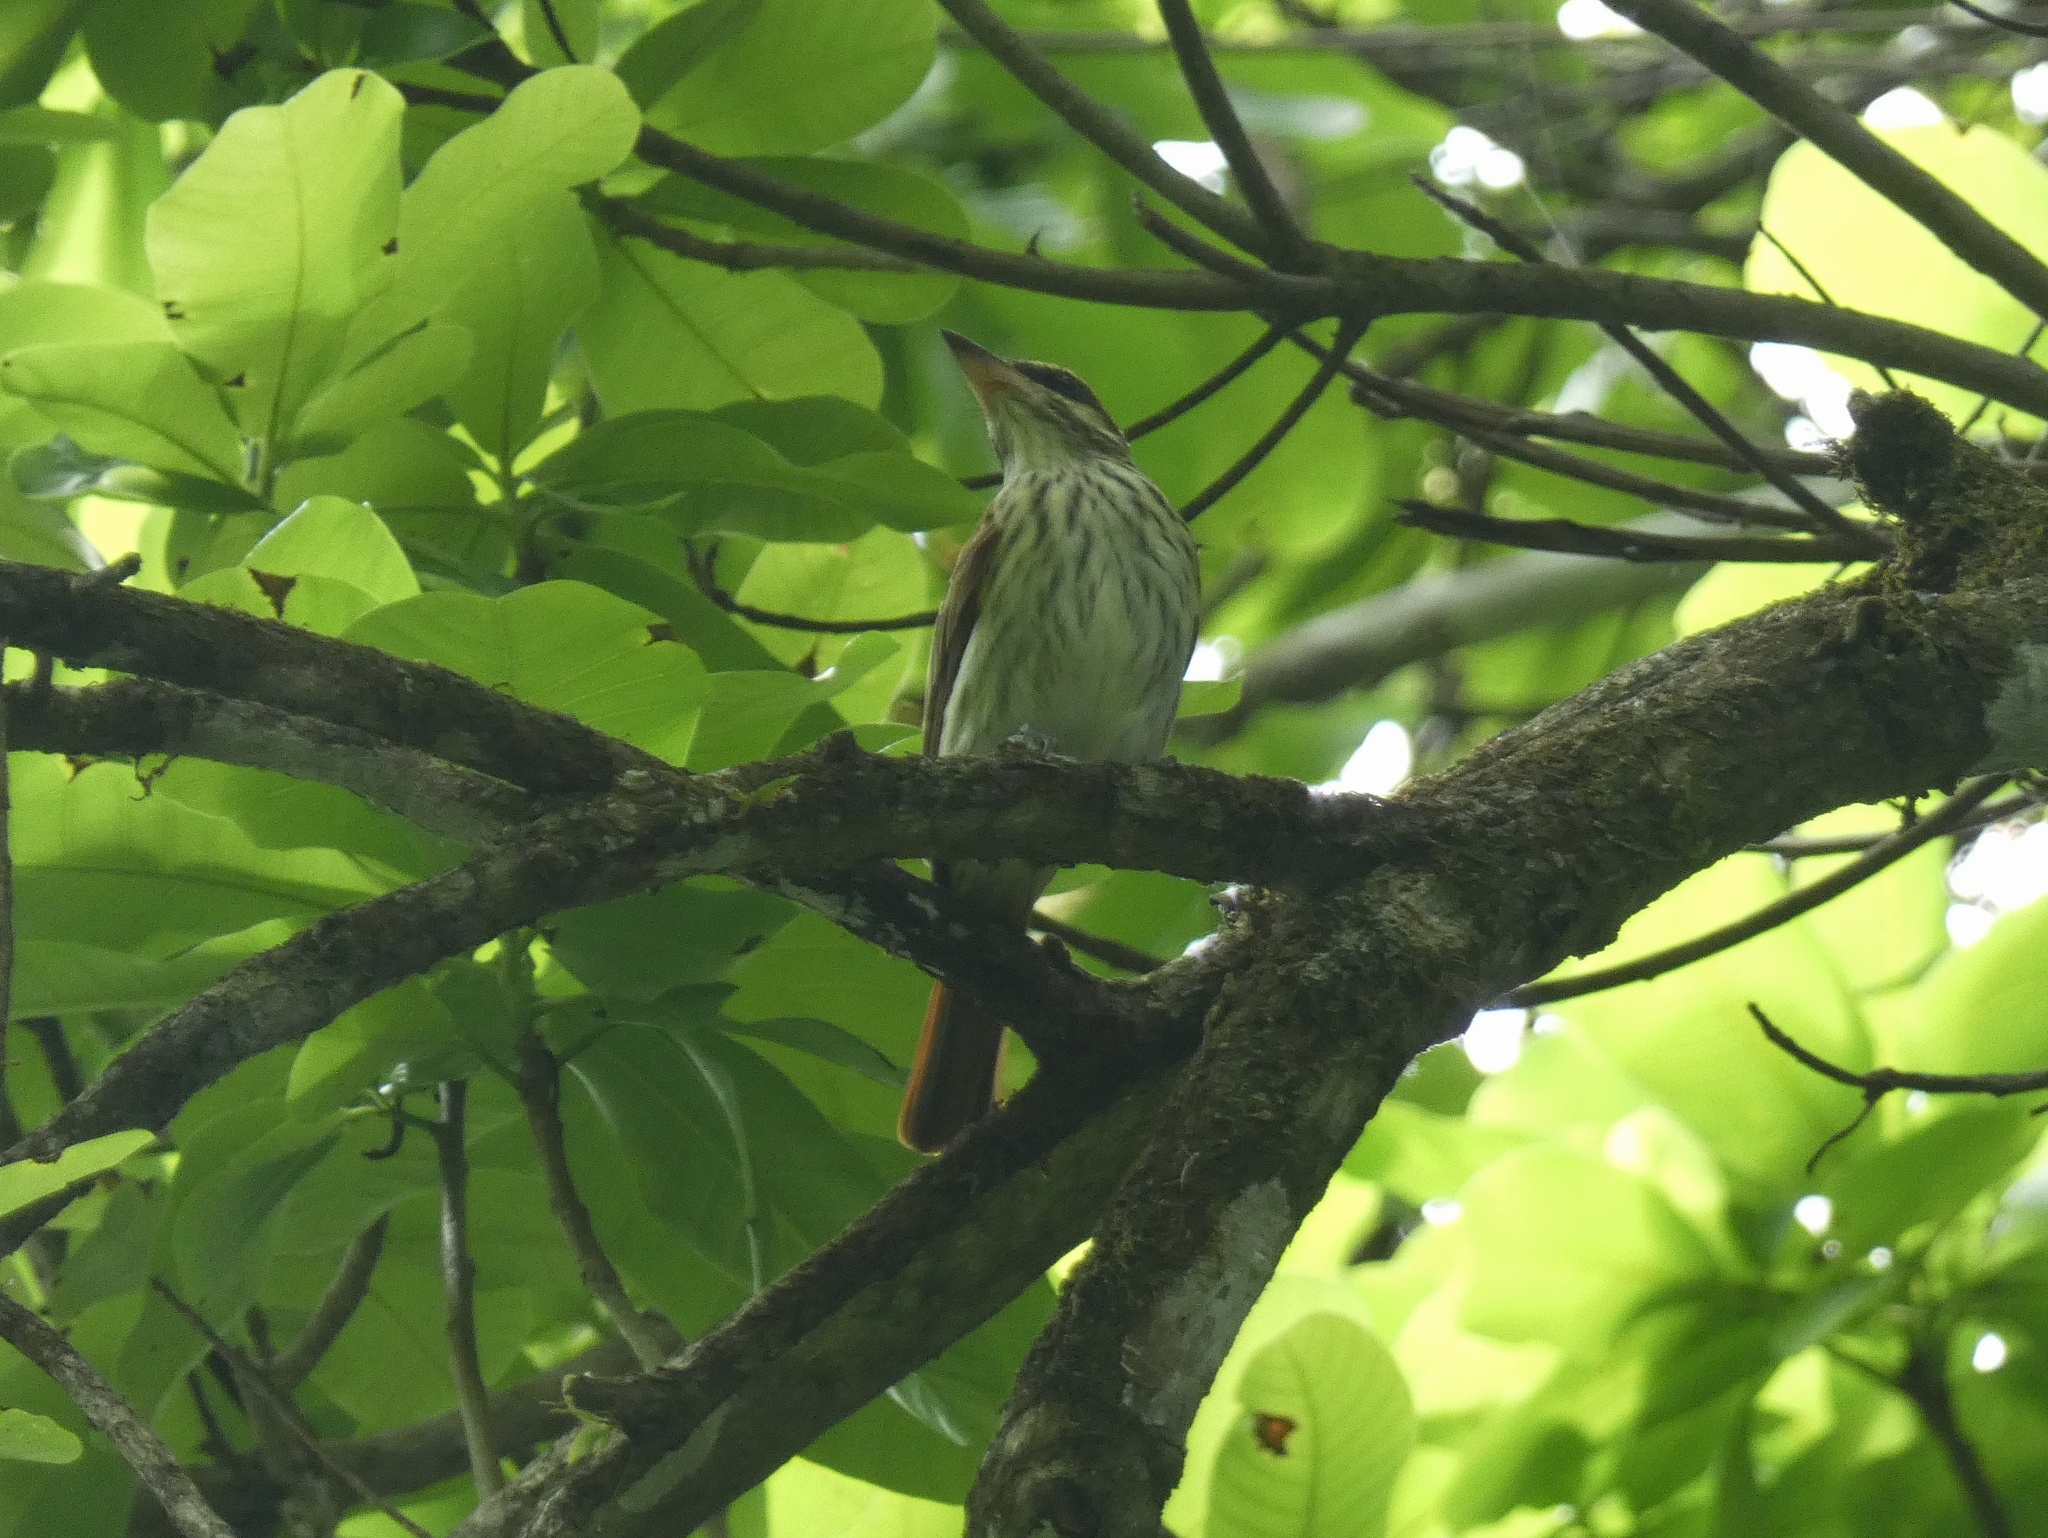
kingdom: Animalia
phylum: Chordata
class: Aves
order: Passeriformes
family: Tyrannidae
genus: Myiodynastes
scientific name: Myiodynastes maculatus
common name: Streaked flycatcher
